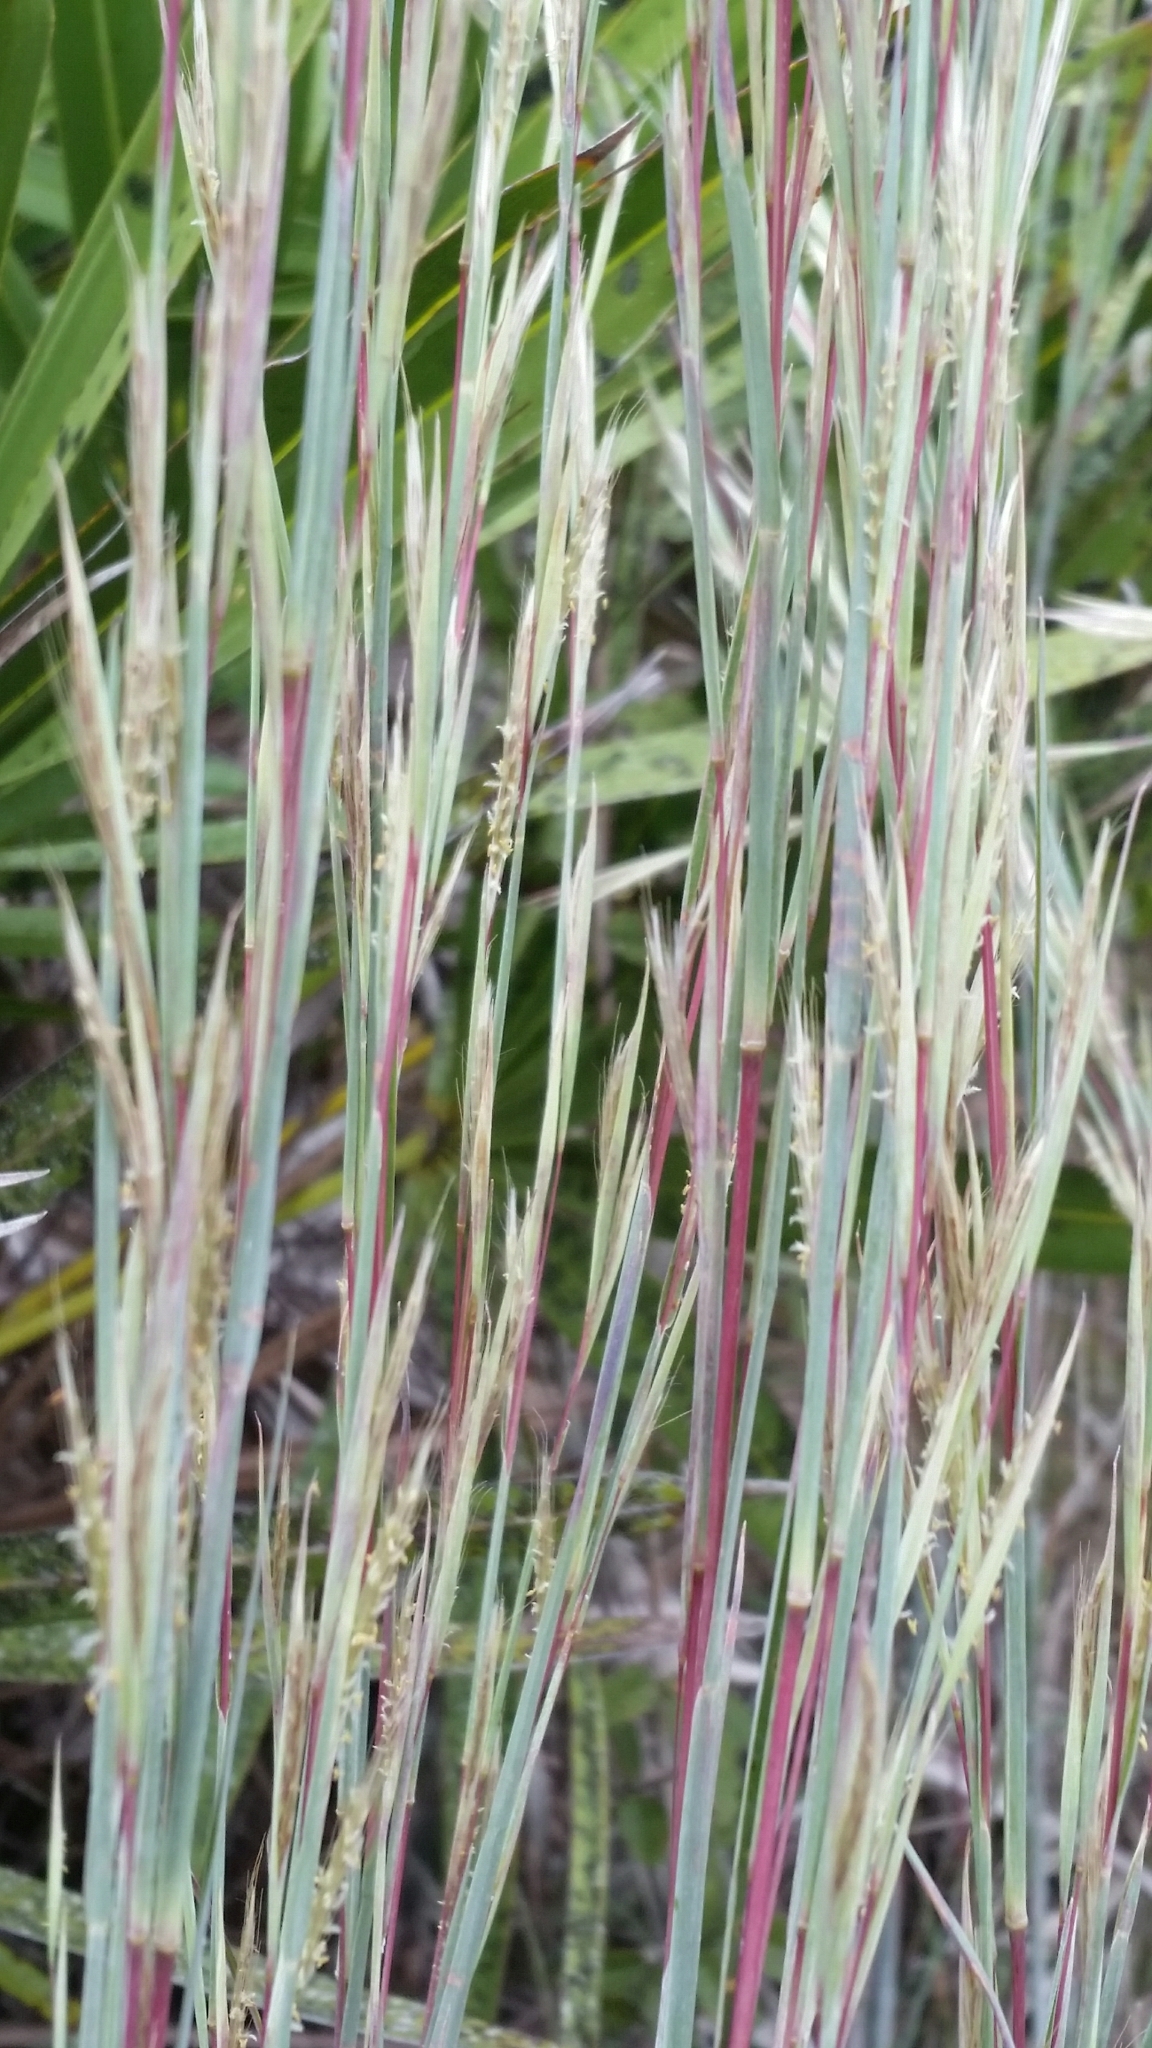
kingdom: Plantae
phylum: Tracheophyta
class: Liliopsida
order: Poales
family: Poaceae
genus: Andropogon
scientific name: Andropogon capillipes
